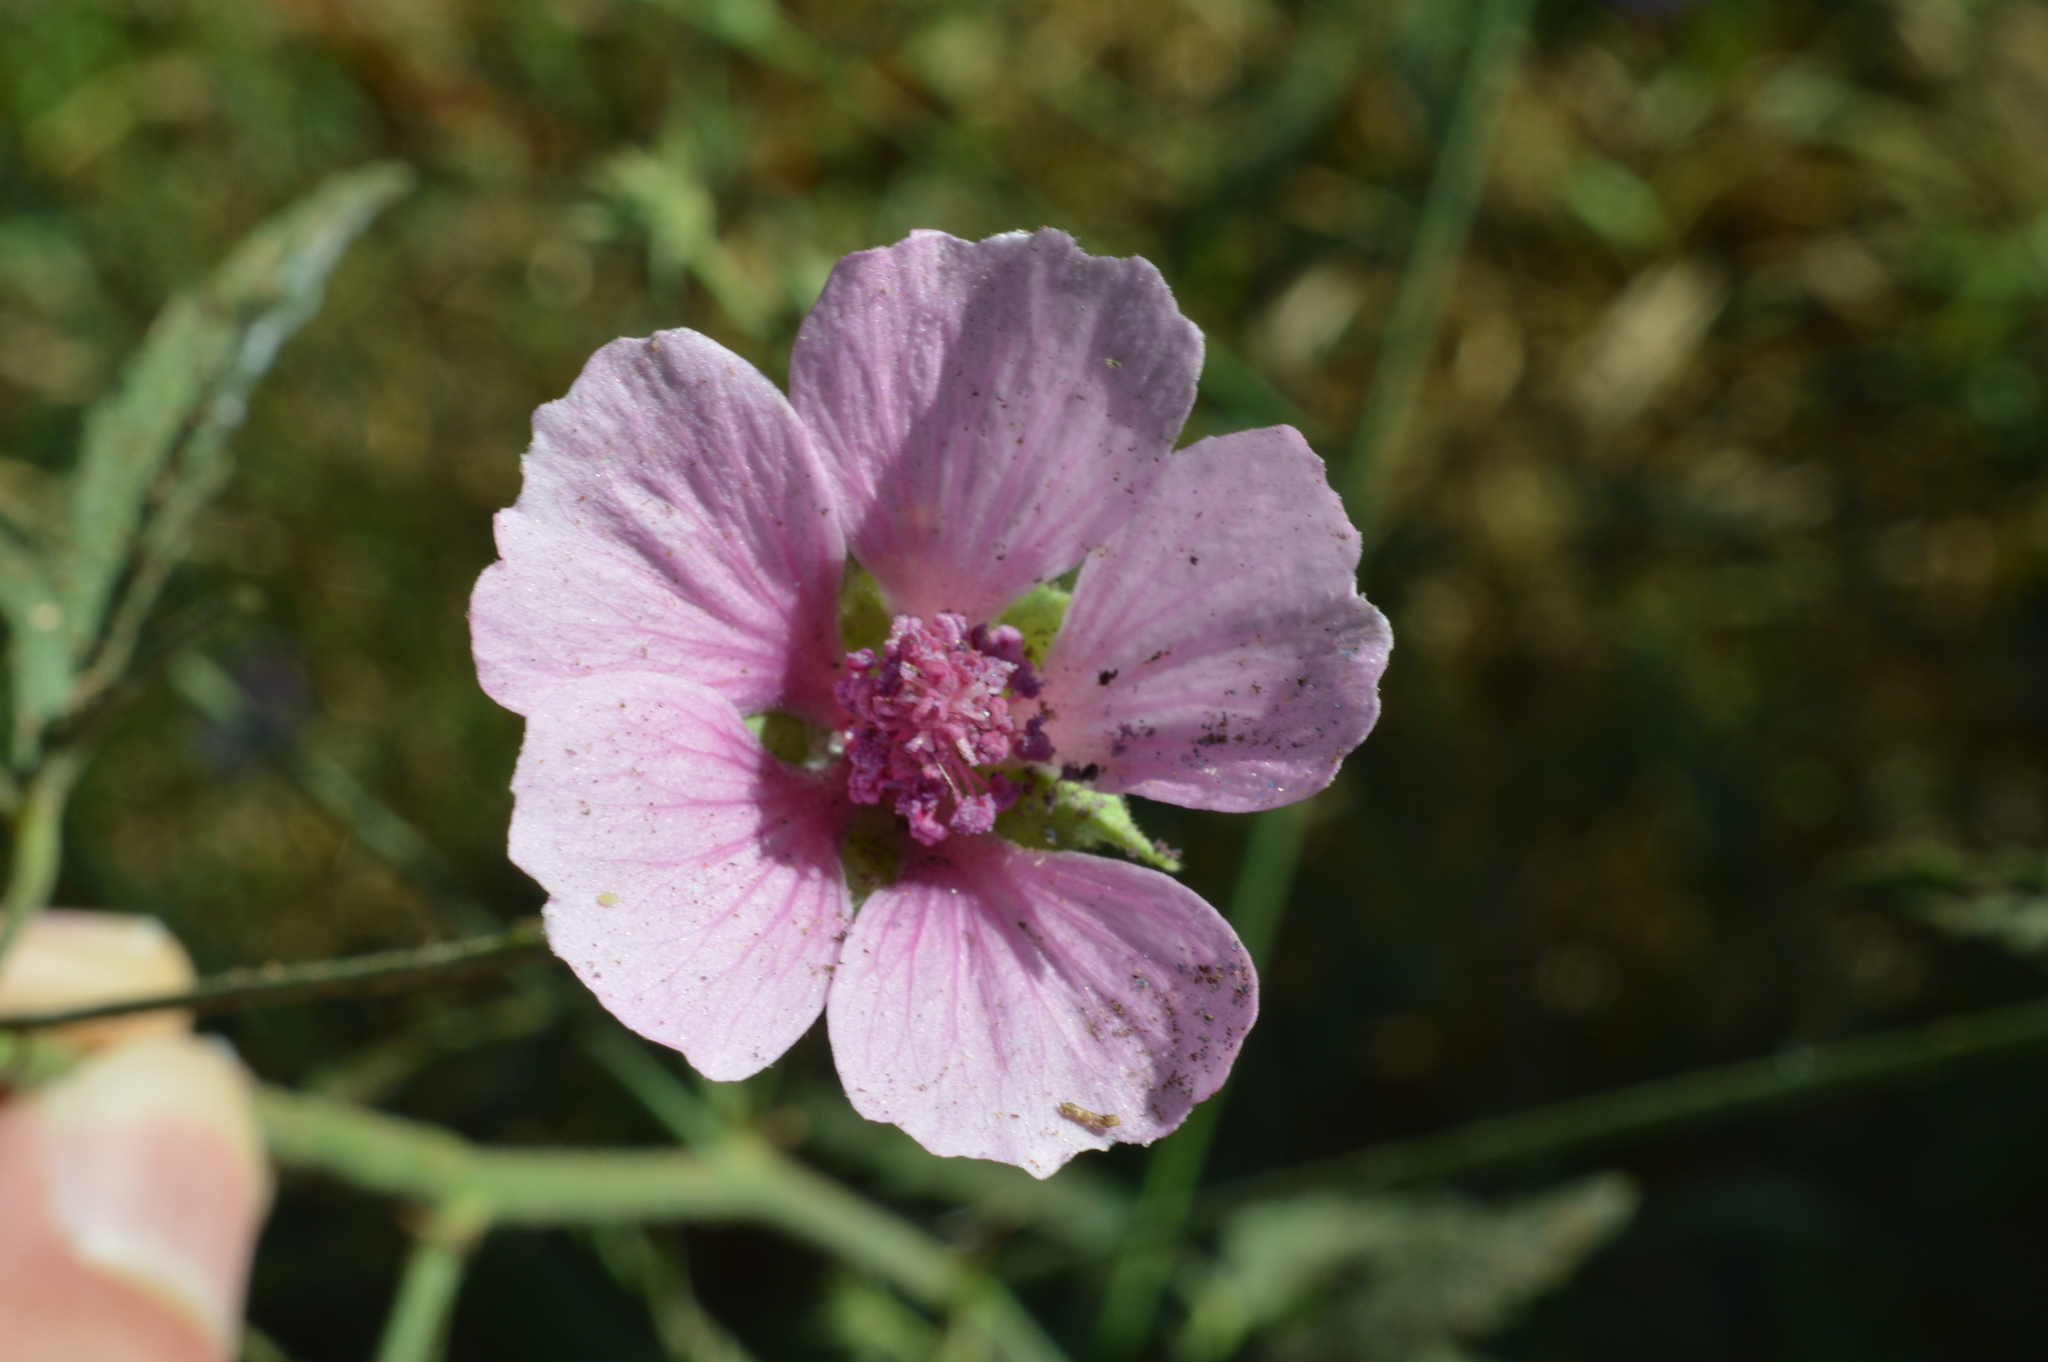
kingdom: Plantae
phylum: Tracheophyta
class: Magnoliopsida
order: Malvales
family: Malvaceae
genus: Althaea
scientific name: Althaea cannabina
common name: Palm-leaf marshmallow
